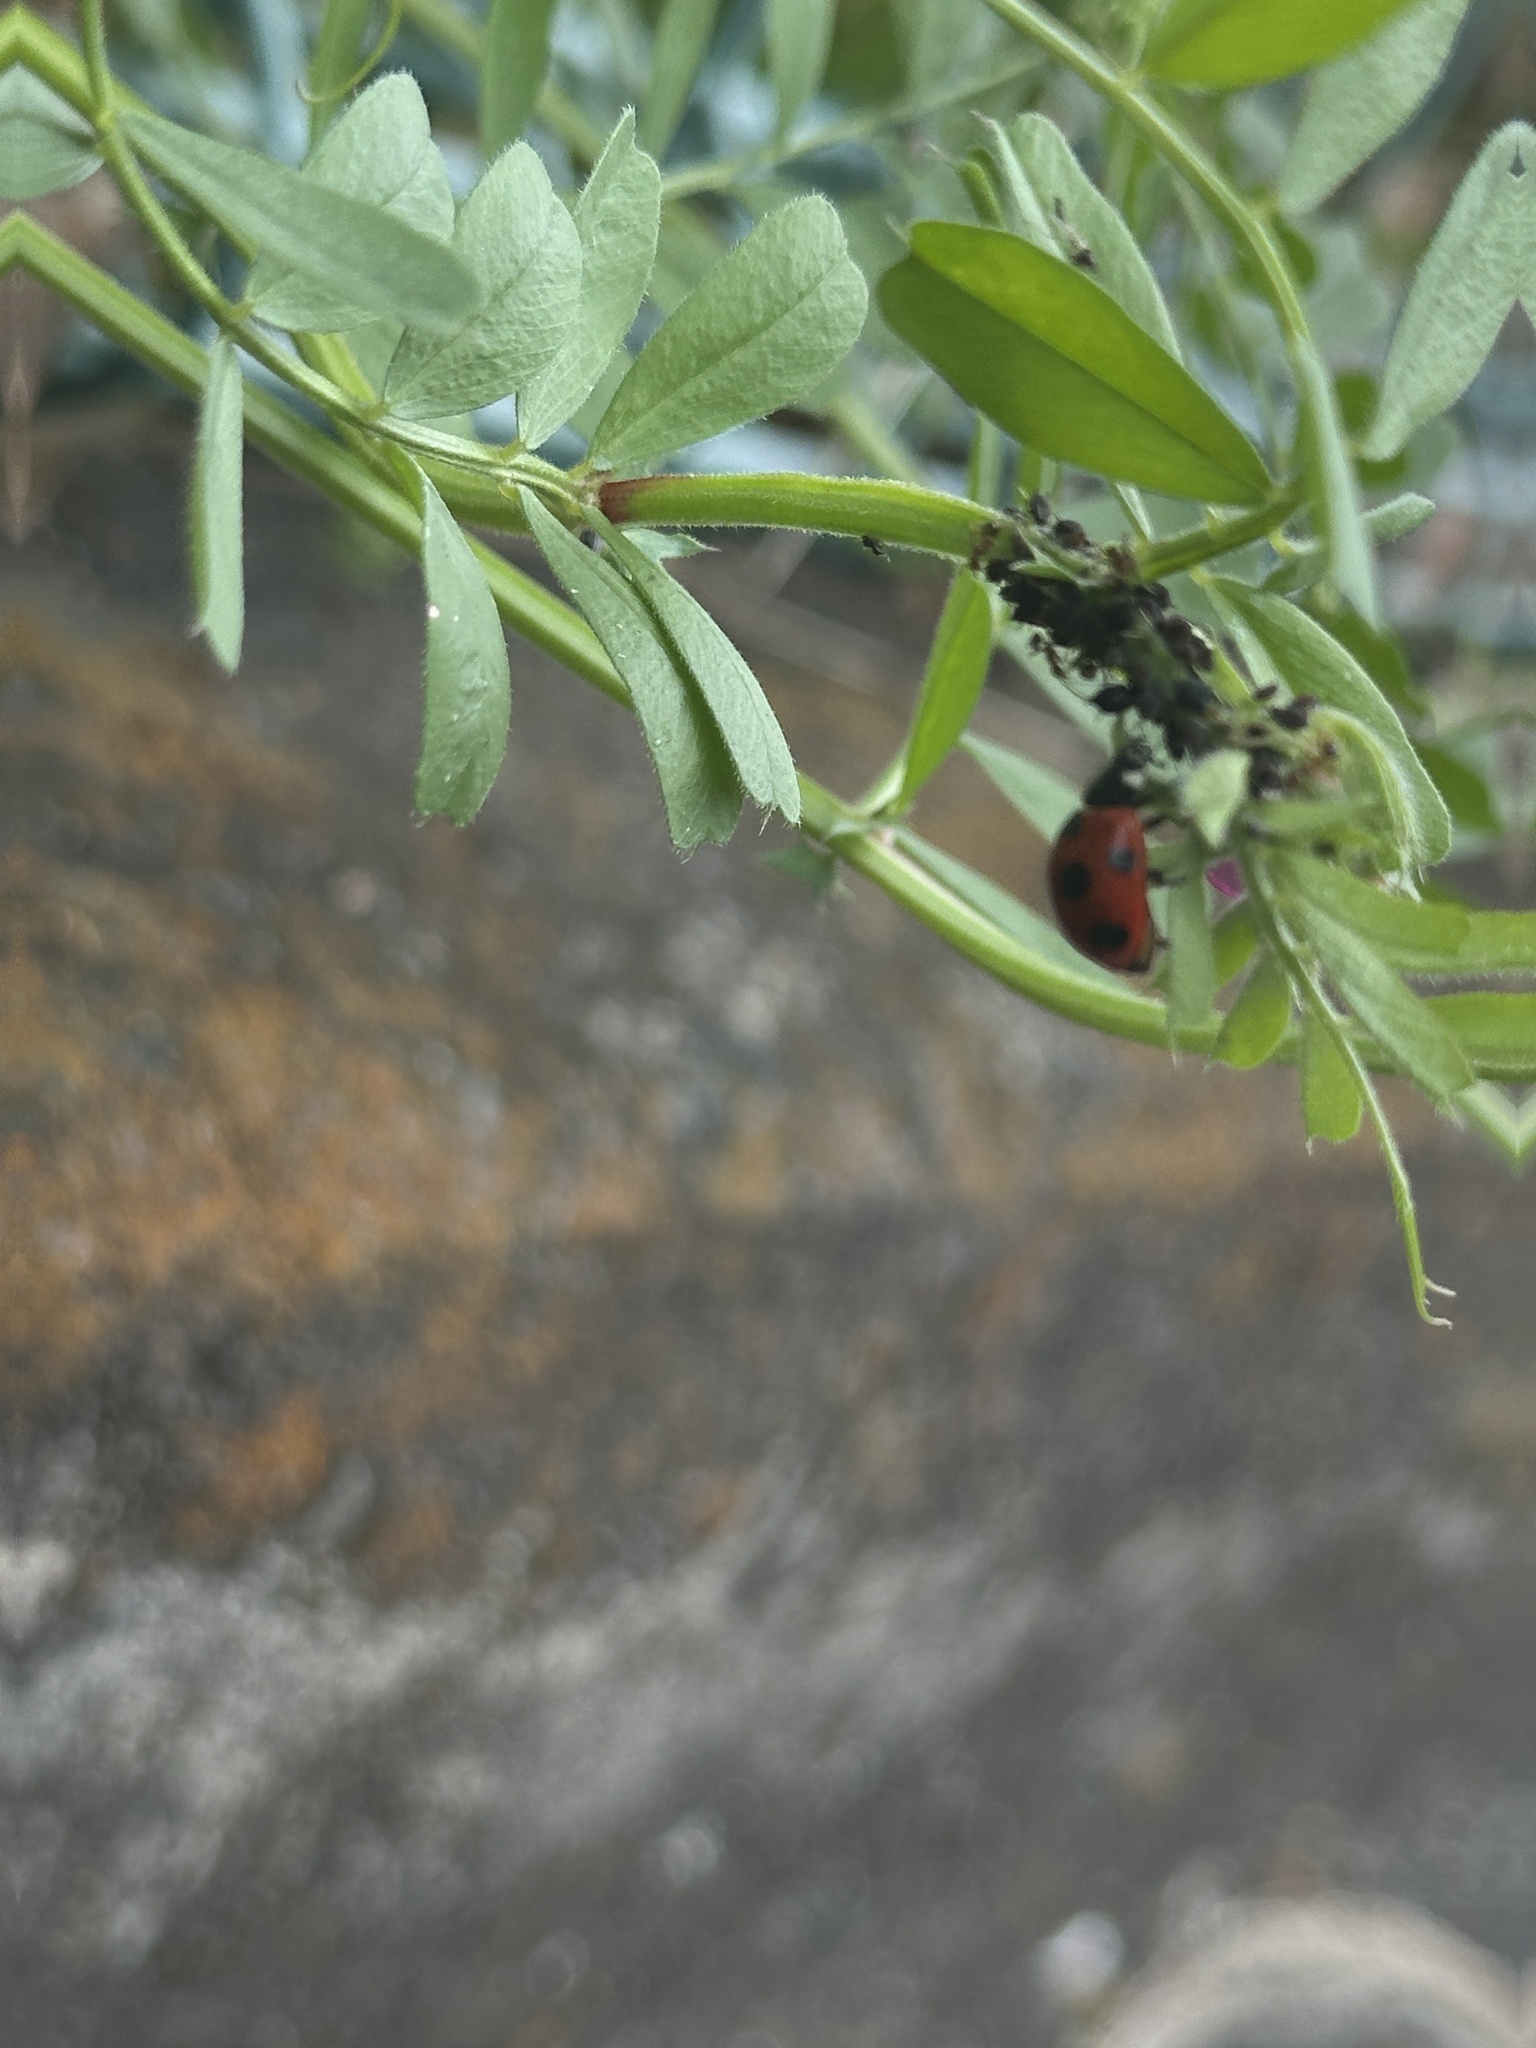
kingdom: Animalia
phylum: Arthropoda
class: Insecta
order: Coleoptera
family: Coccinellidae
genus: Coccinella
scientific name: Coccinella septempunctata
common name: Sevenspotted lady beetle
